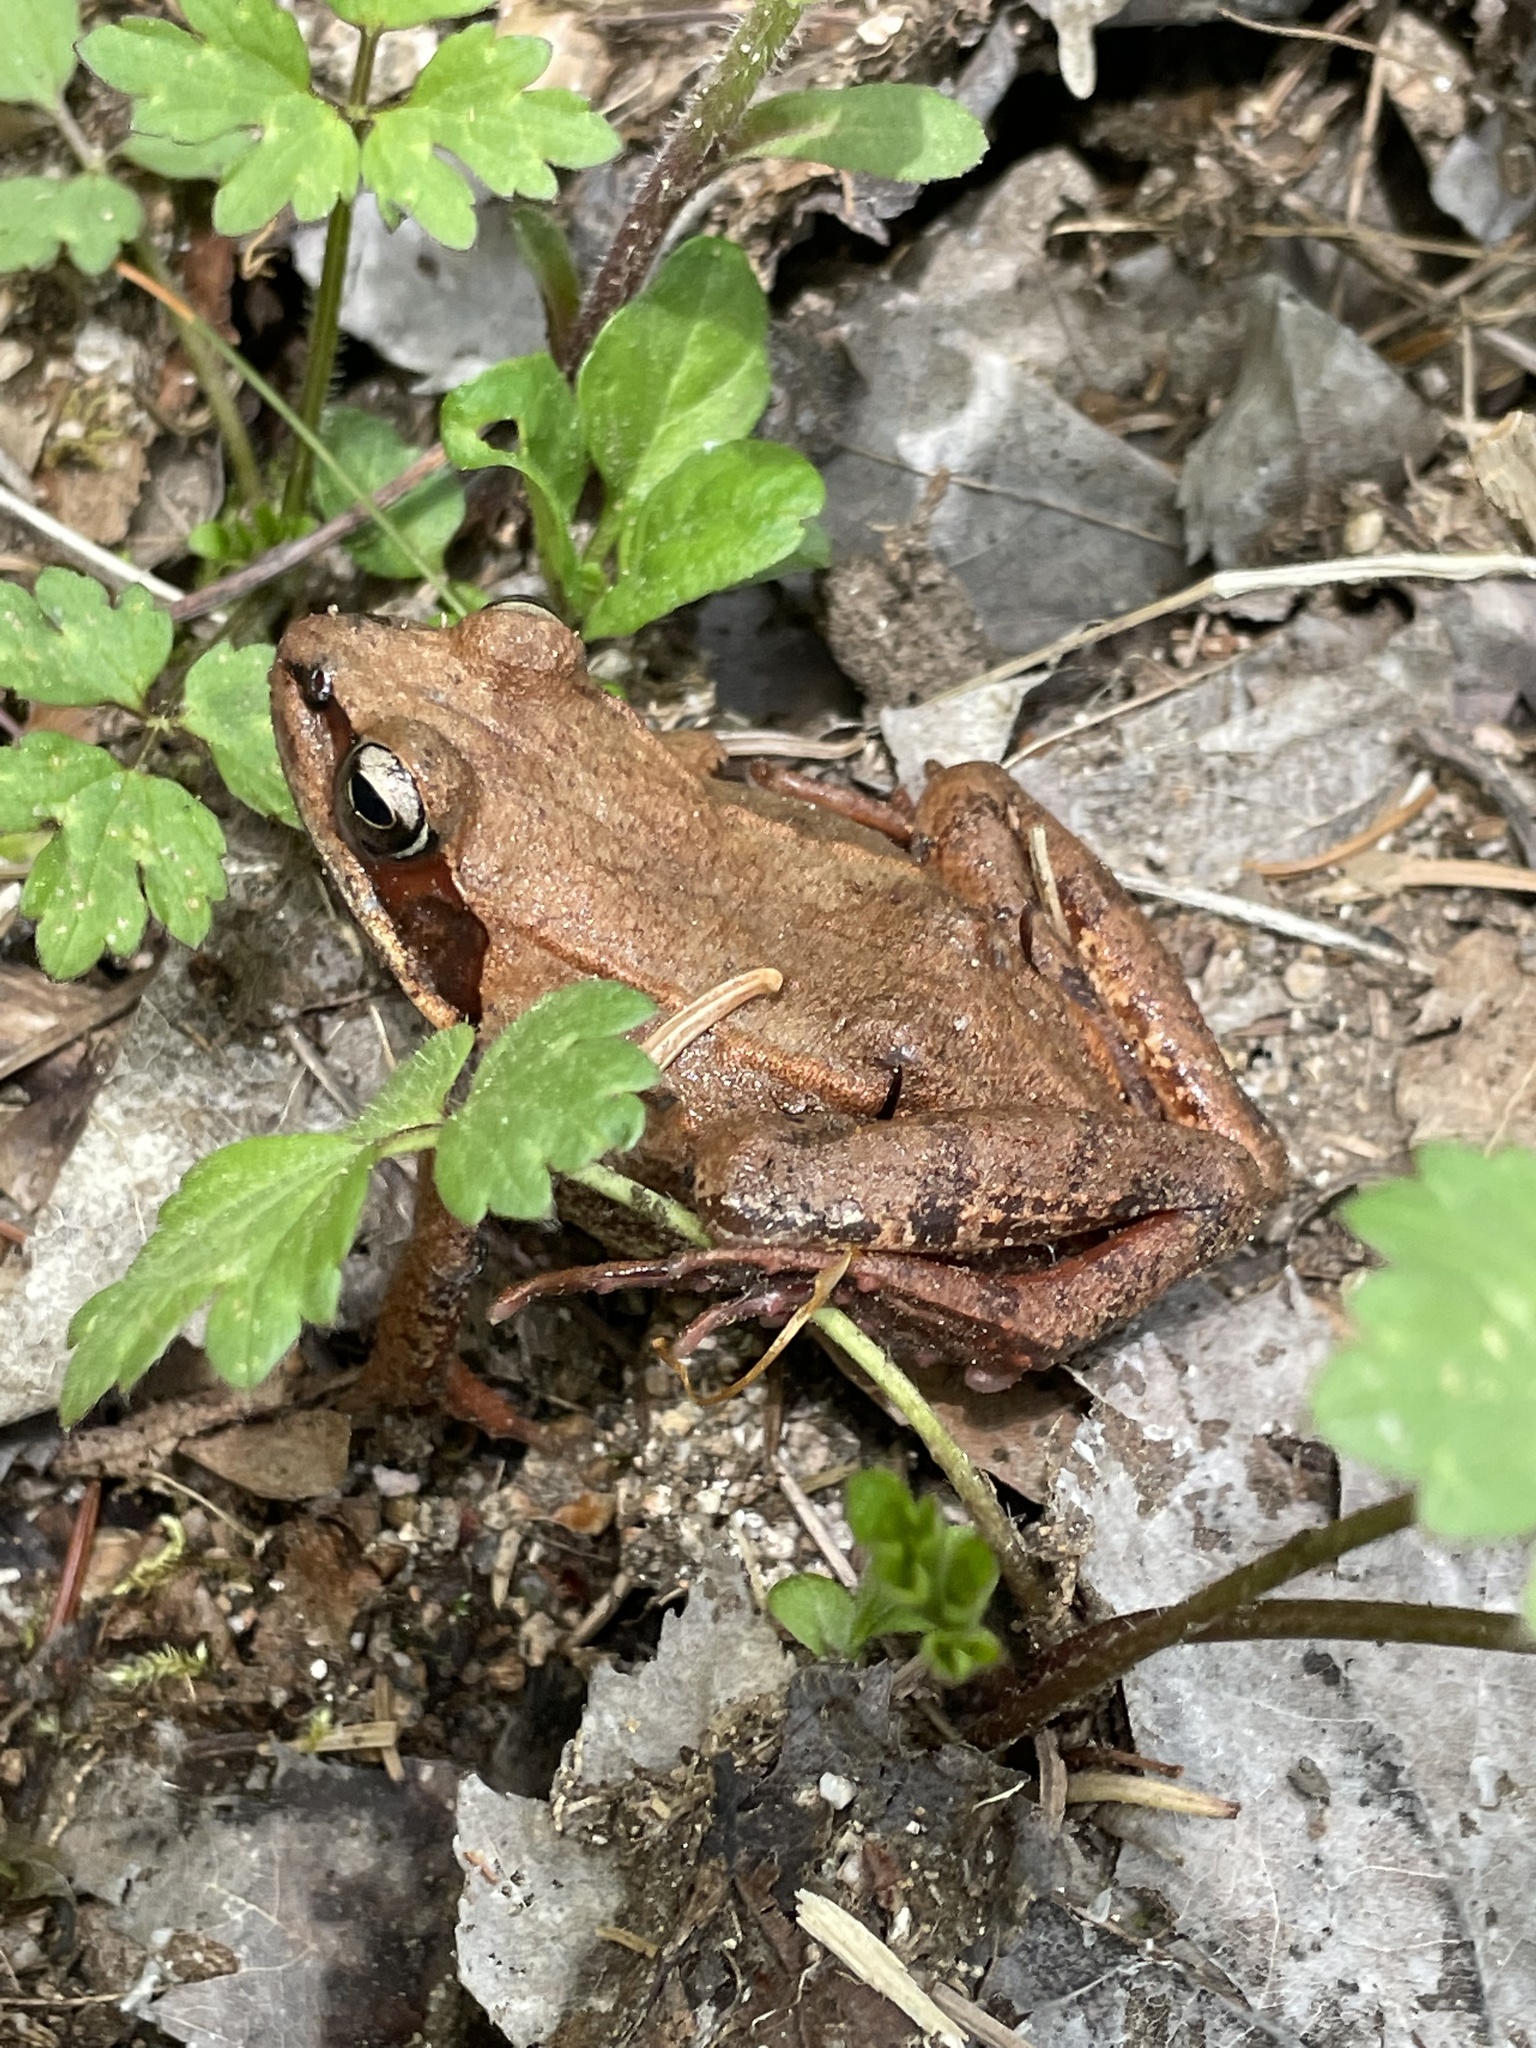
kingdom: Animalia
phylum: Chordata
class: Amphibia
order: Anura
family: Ranidae
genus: Lithobates
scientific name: Lithobates sylvaticus
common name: Wood frog
